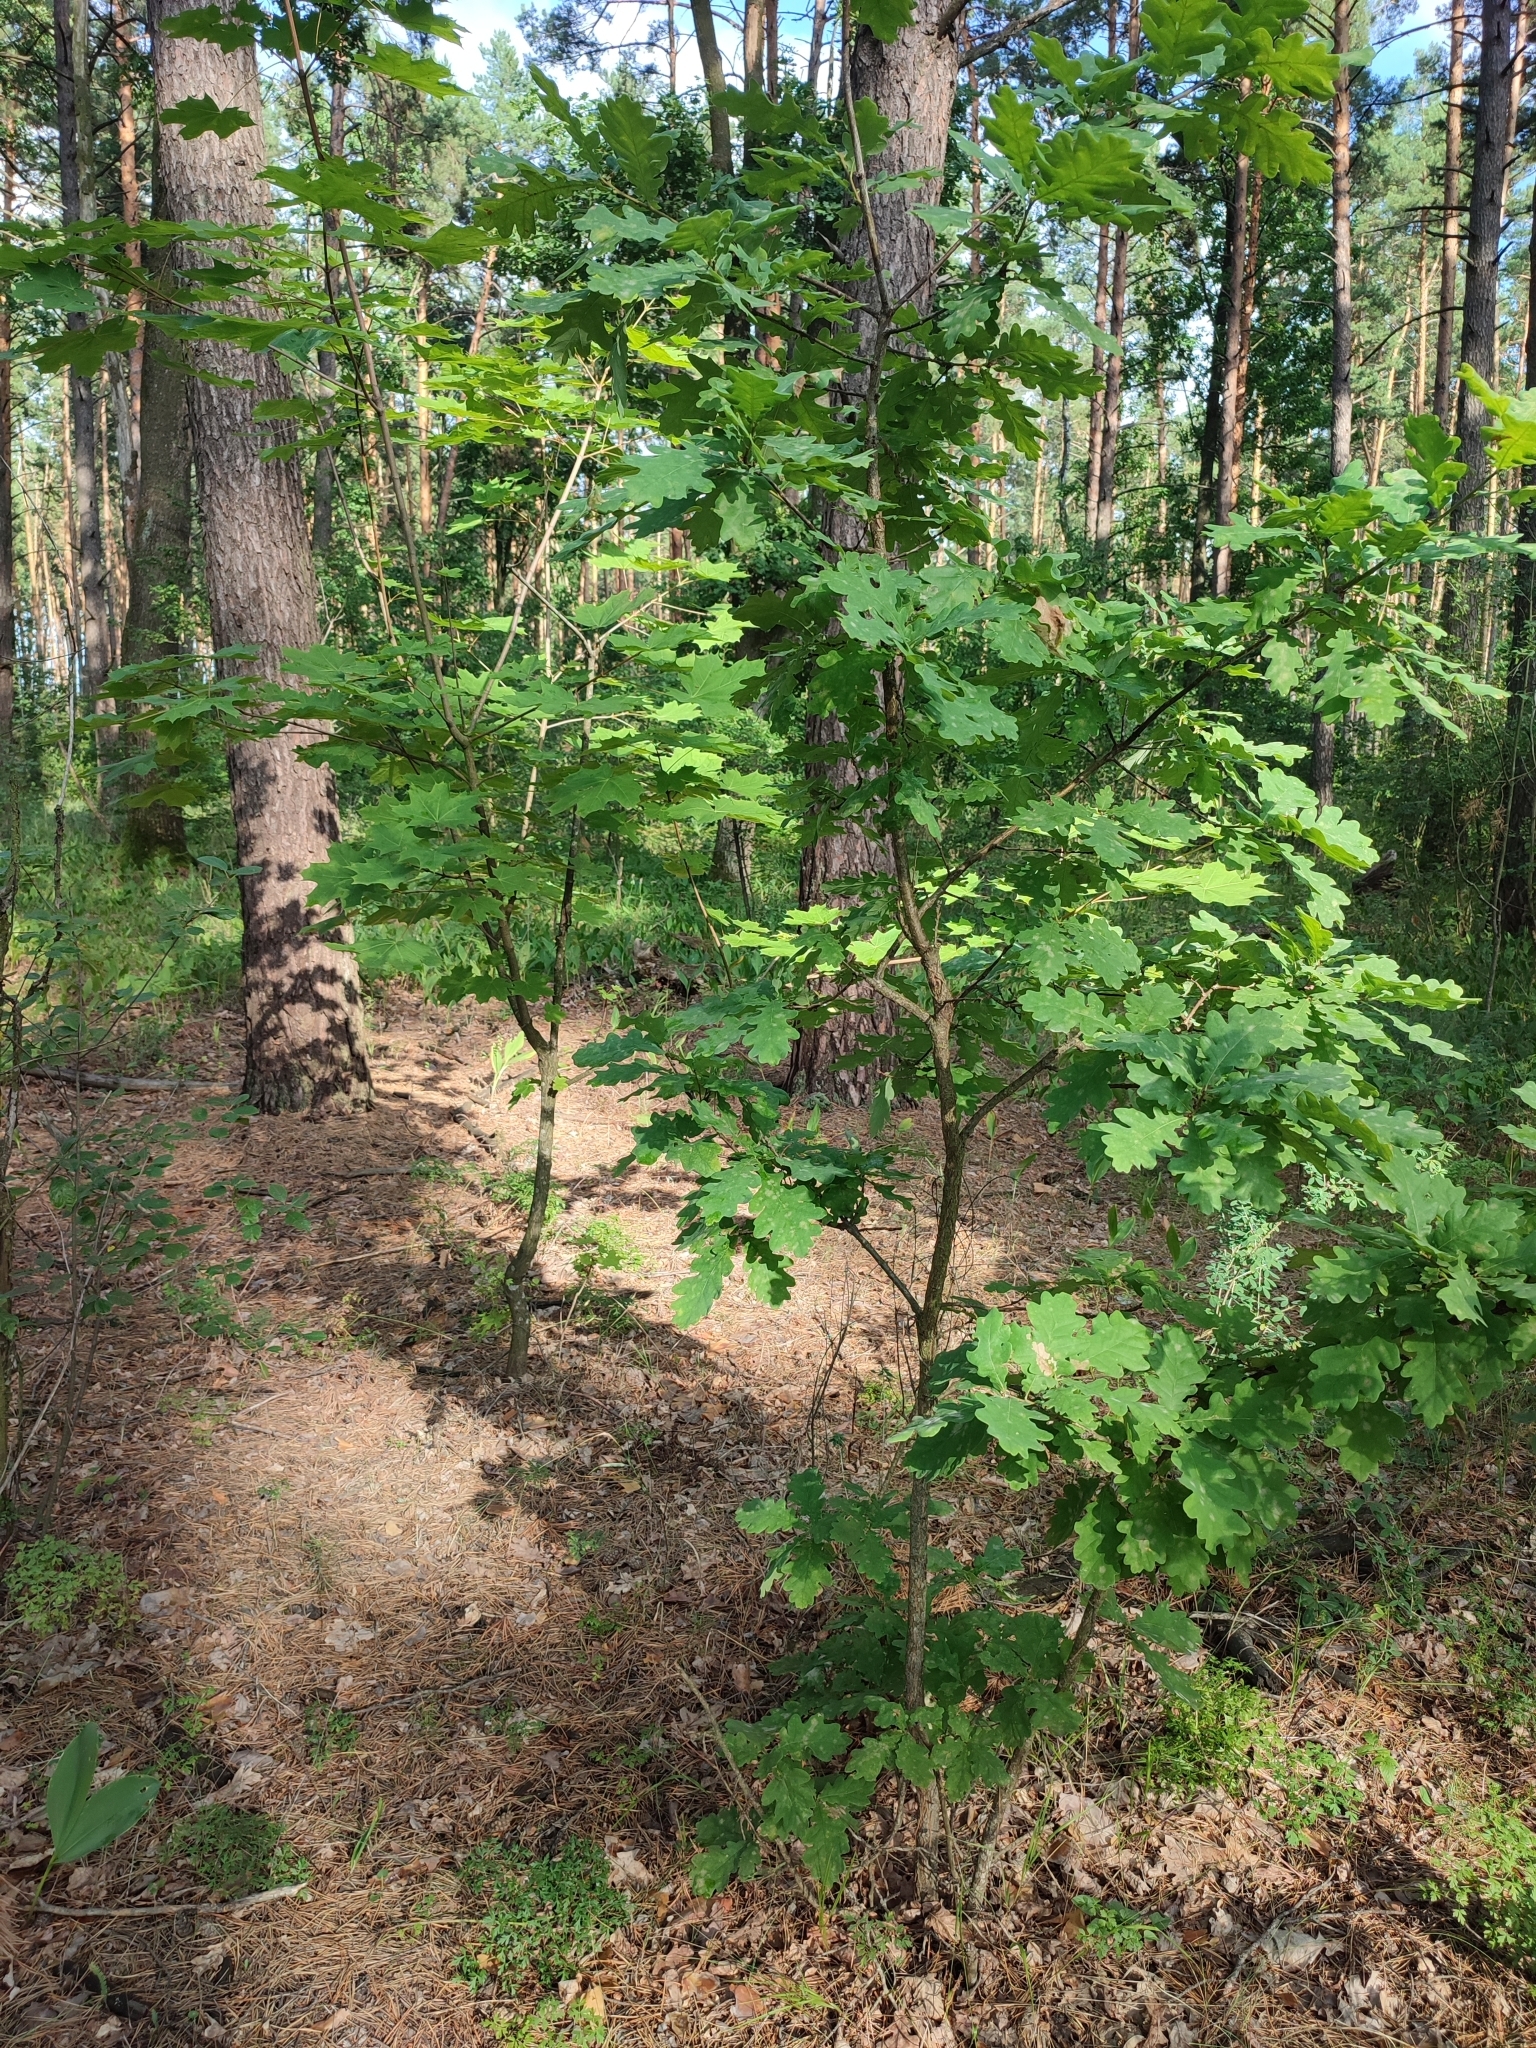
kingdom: Plantae
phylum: Tracheophyta
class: Magnoliopsida
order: Fagales
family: Fagaceae
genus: Quercus
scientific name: Quercus robur
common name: Pedunculate oak
